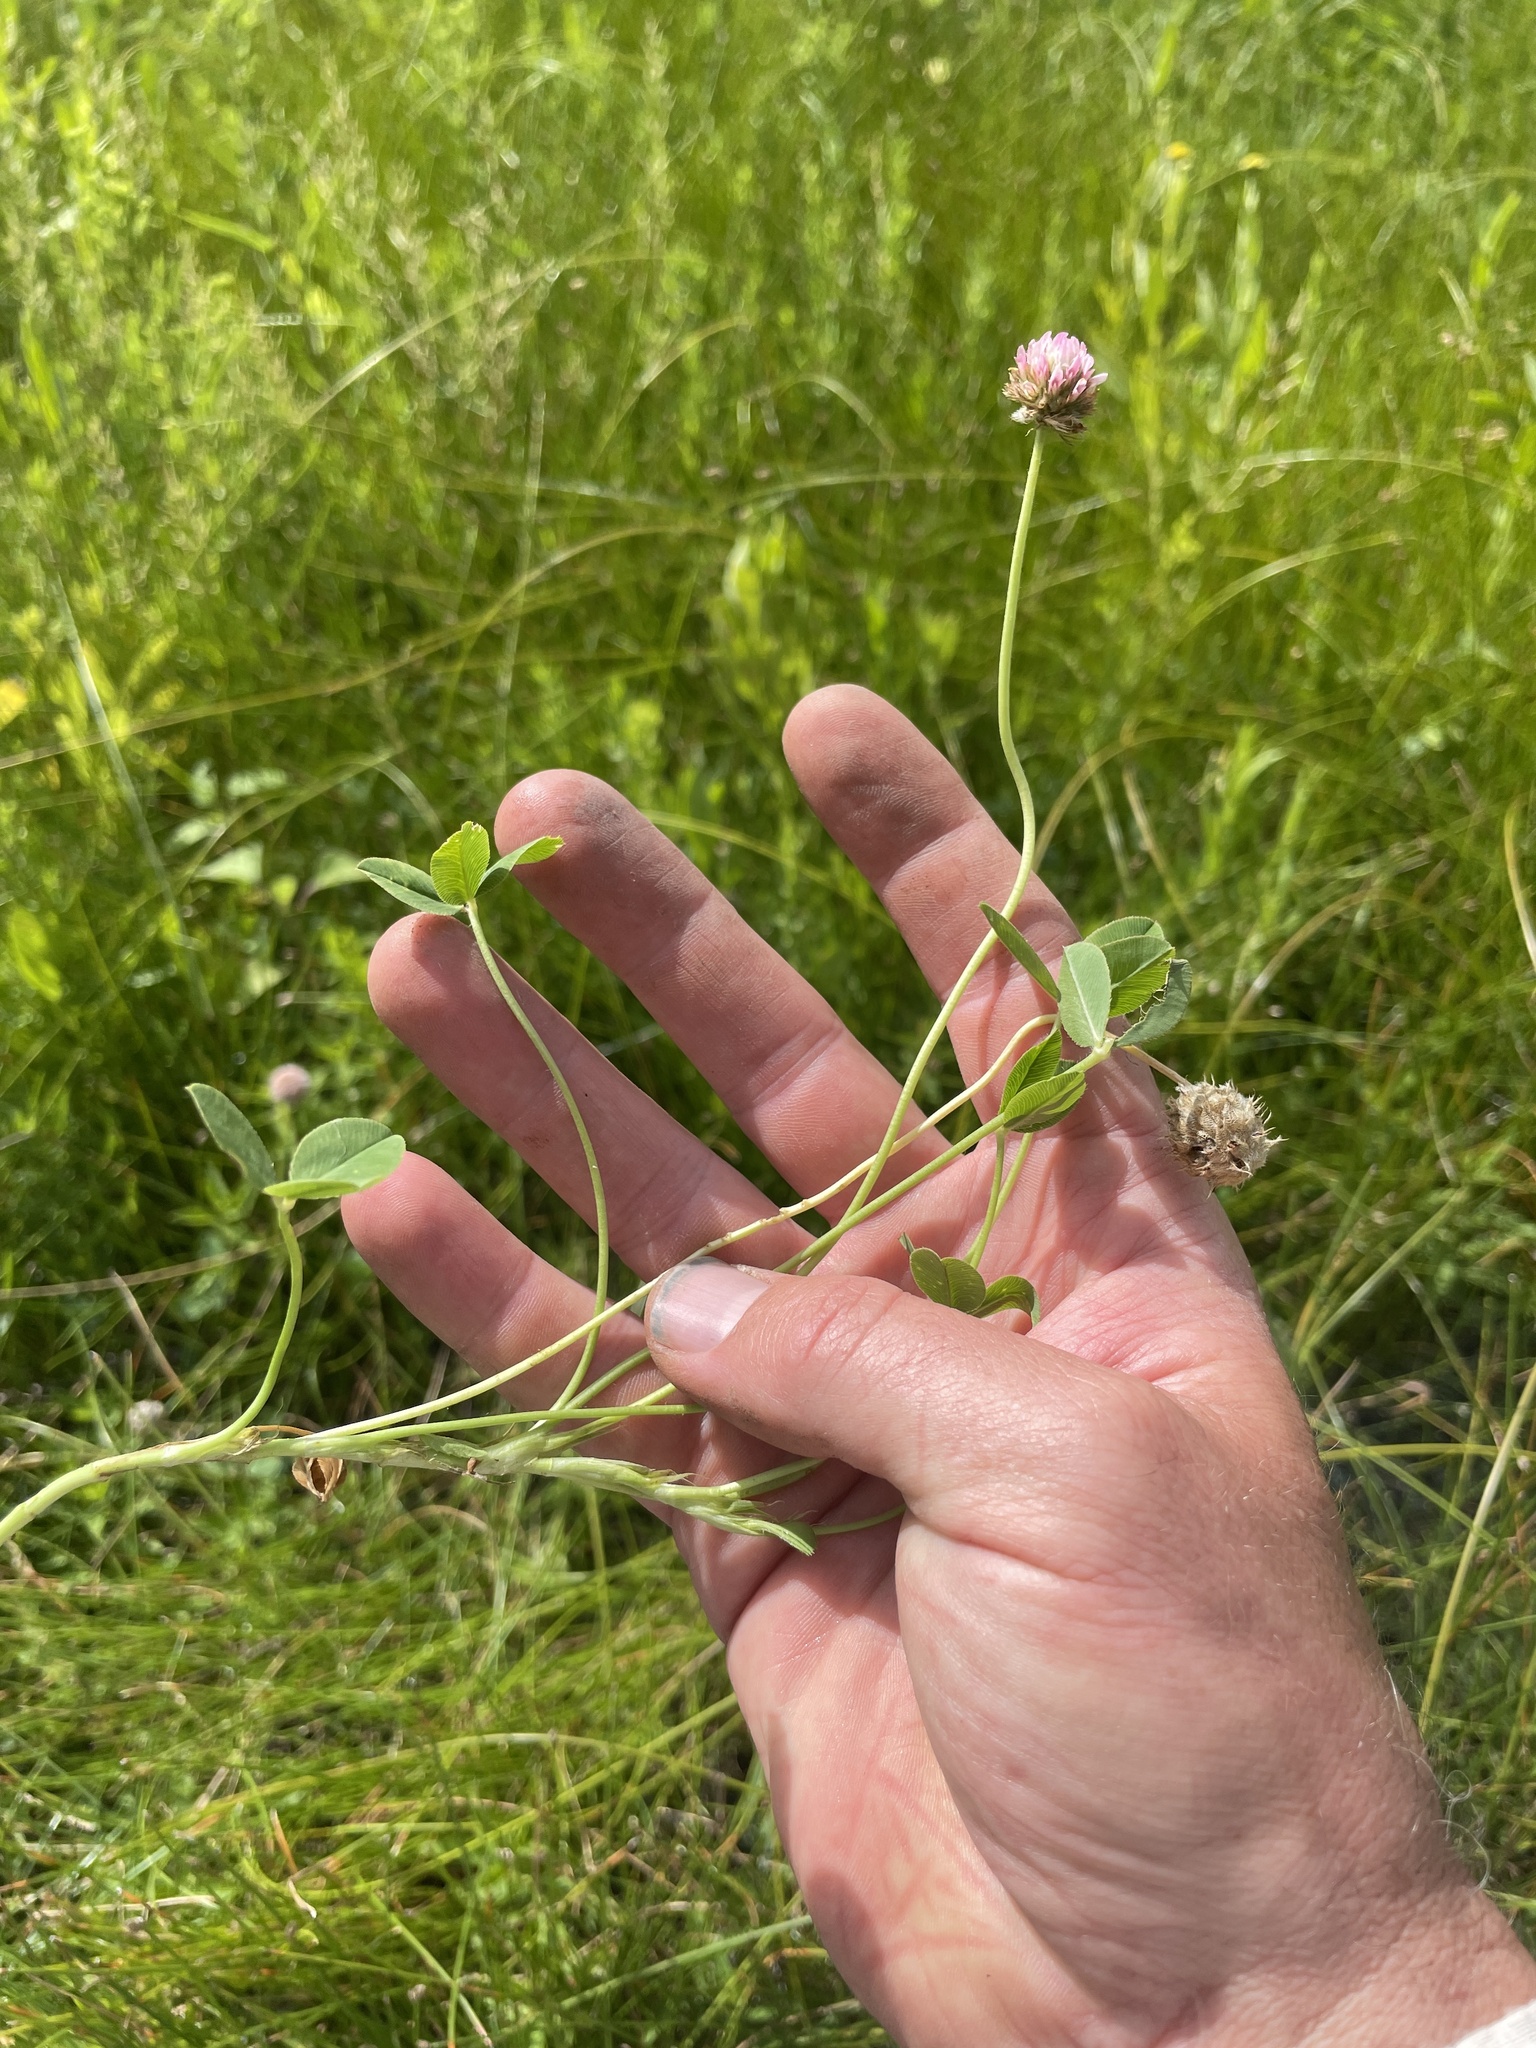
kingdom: Plantae
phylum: Tracheophyta
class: Magnoliopsida
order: Fabales
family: Fabaceae
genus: Trifolium
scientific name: Trifolium fragiferum
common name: Strawberry clover
